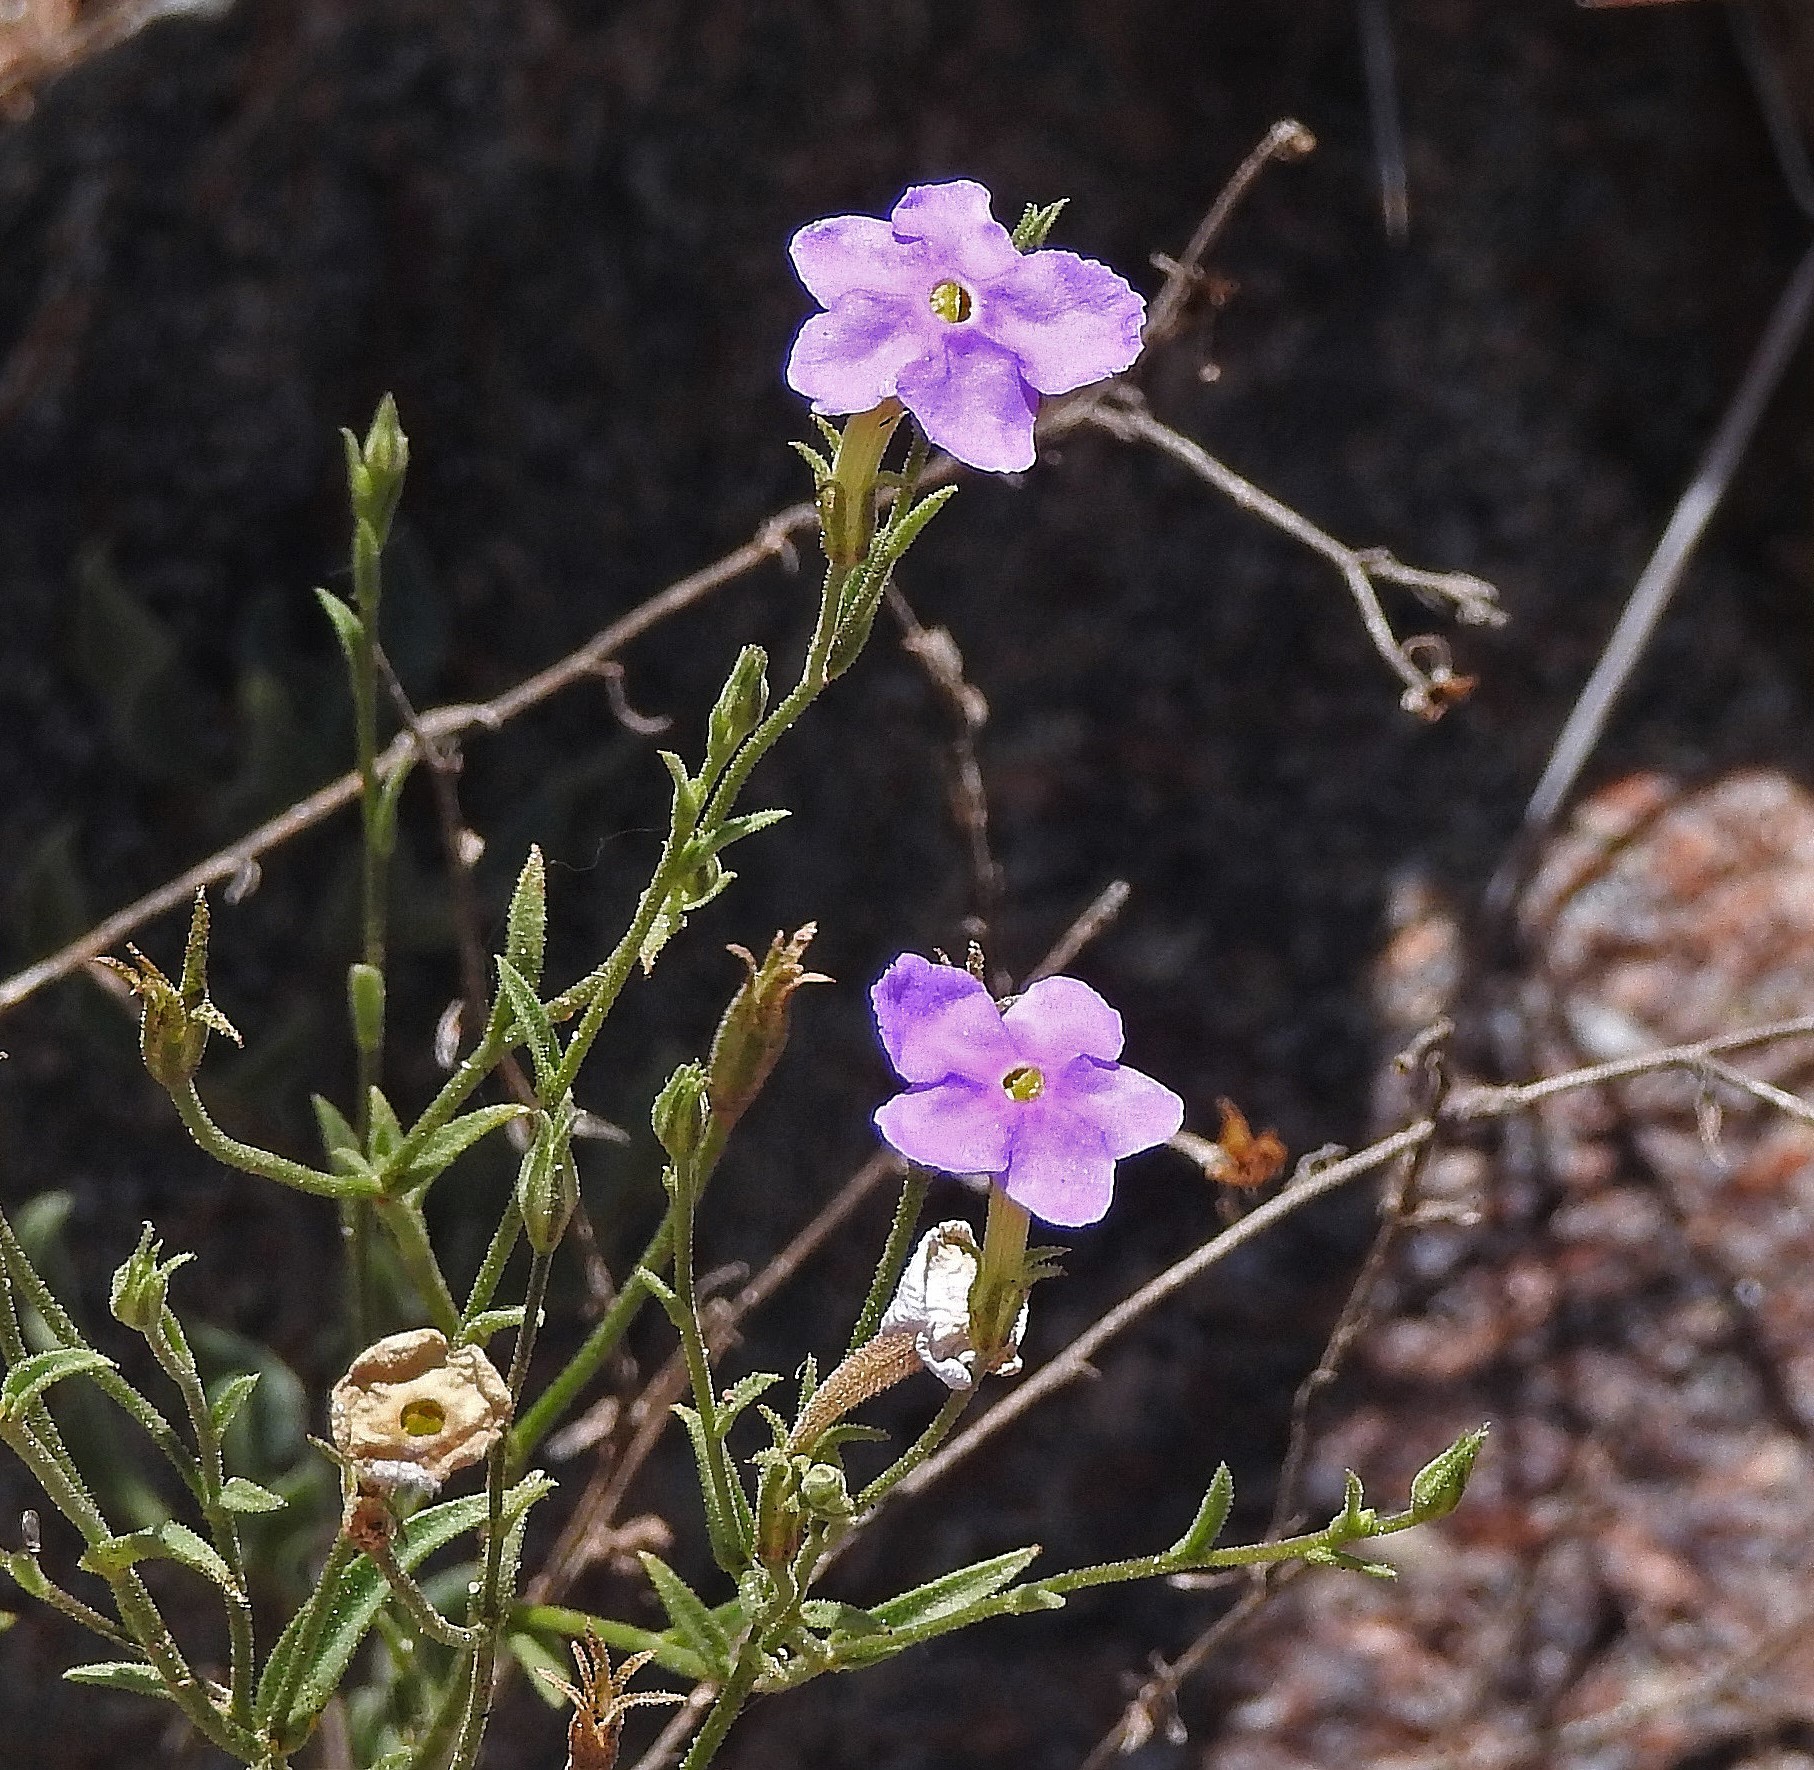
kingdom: Plantae
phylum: Tracheophyta
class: Magnoliopsida
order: Solanales
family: Solanaceae
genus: Leptoglossis
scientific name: Leptoglossis linifolia
